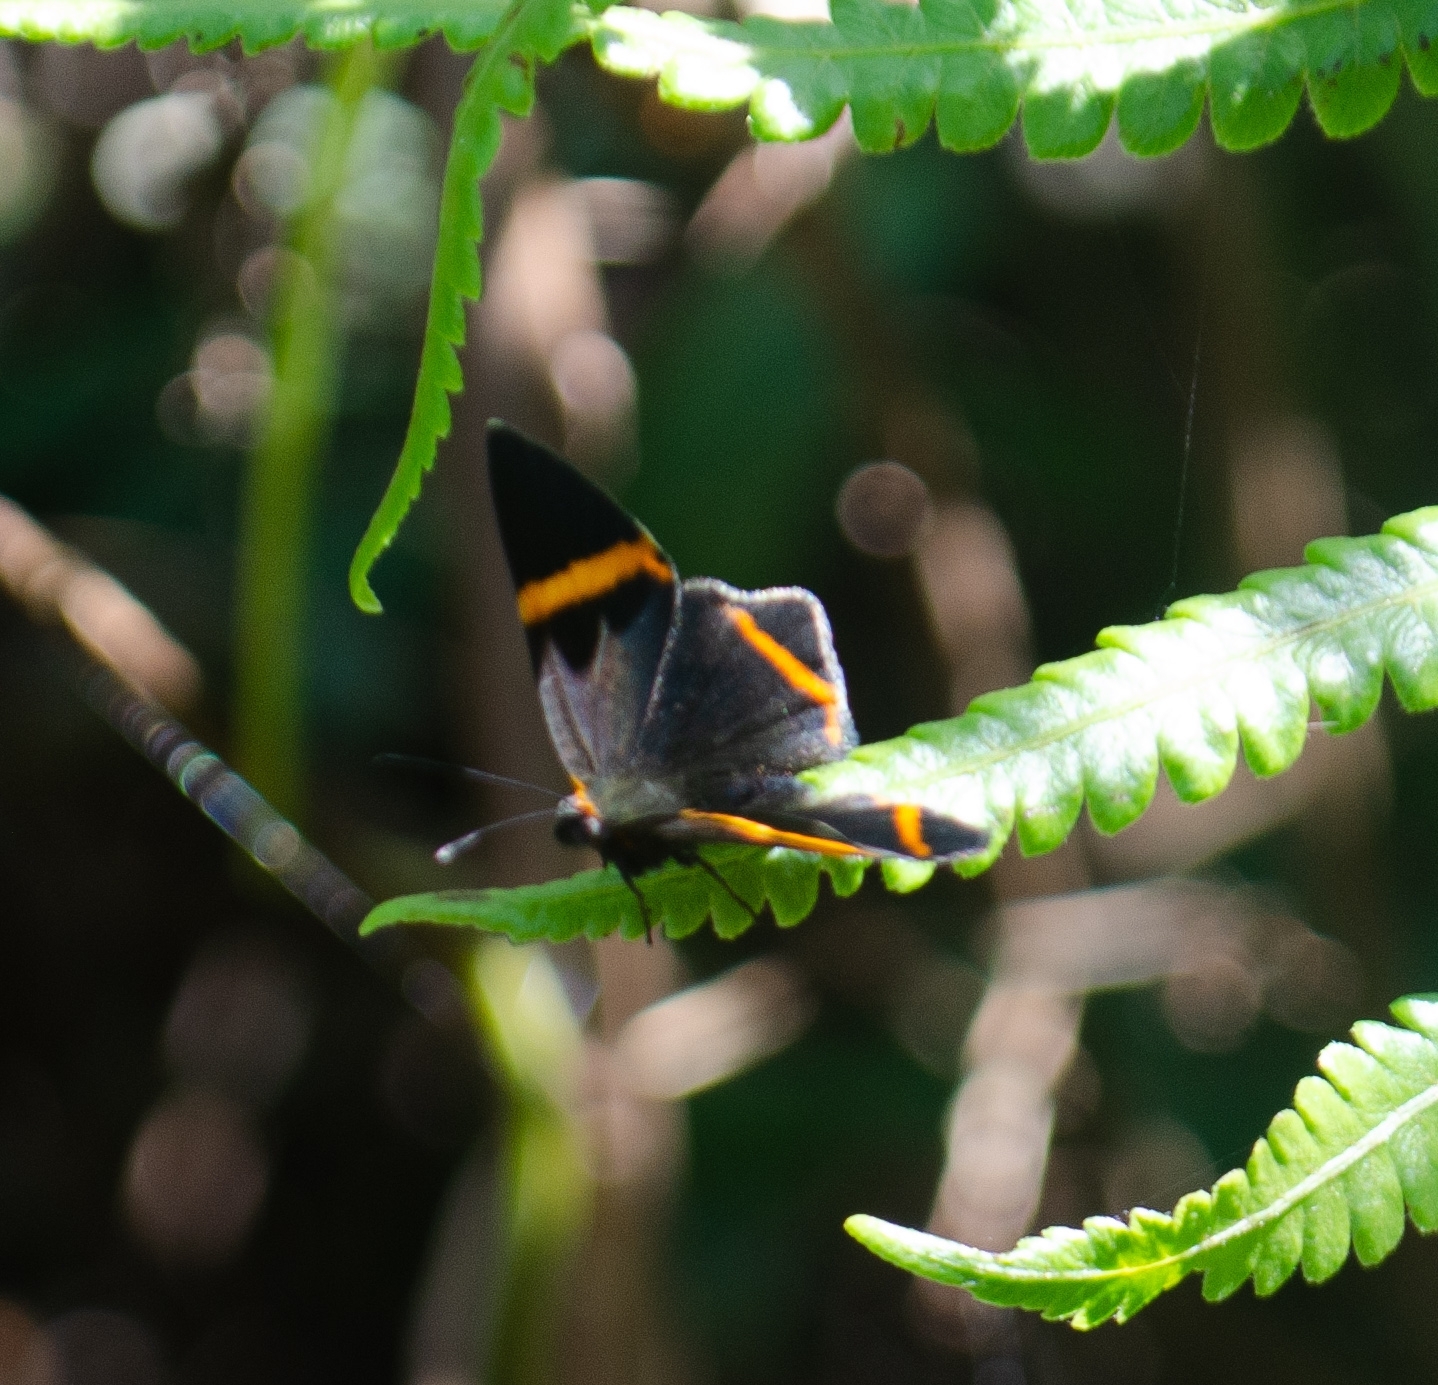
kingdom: Animalia
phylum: Arthropoda
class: Insecta
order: Lepidoptera
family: Riodinidae
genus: Riodina
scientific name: Riodina lysippoides
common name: Little dancer metalmark
